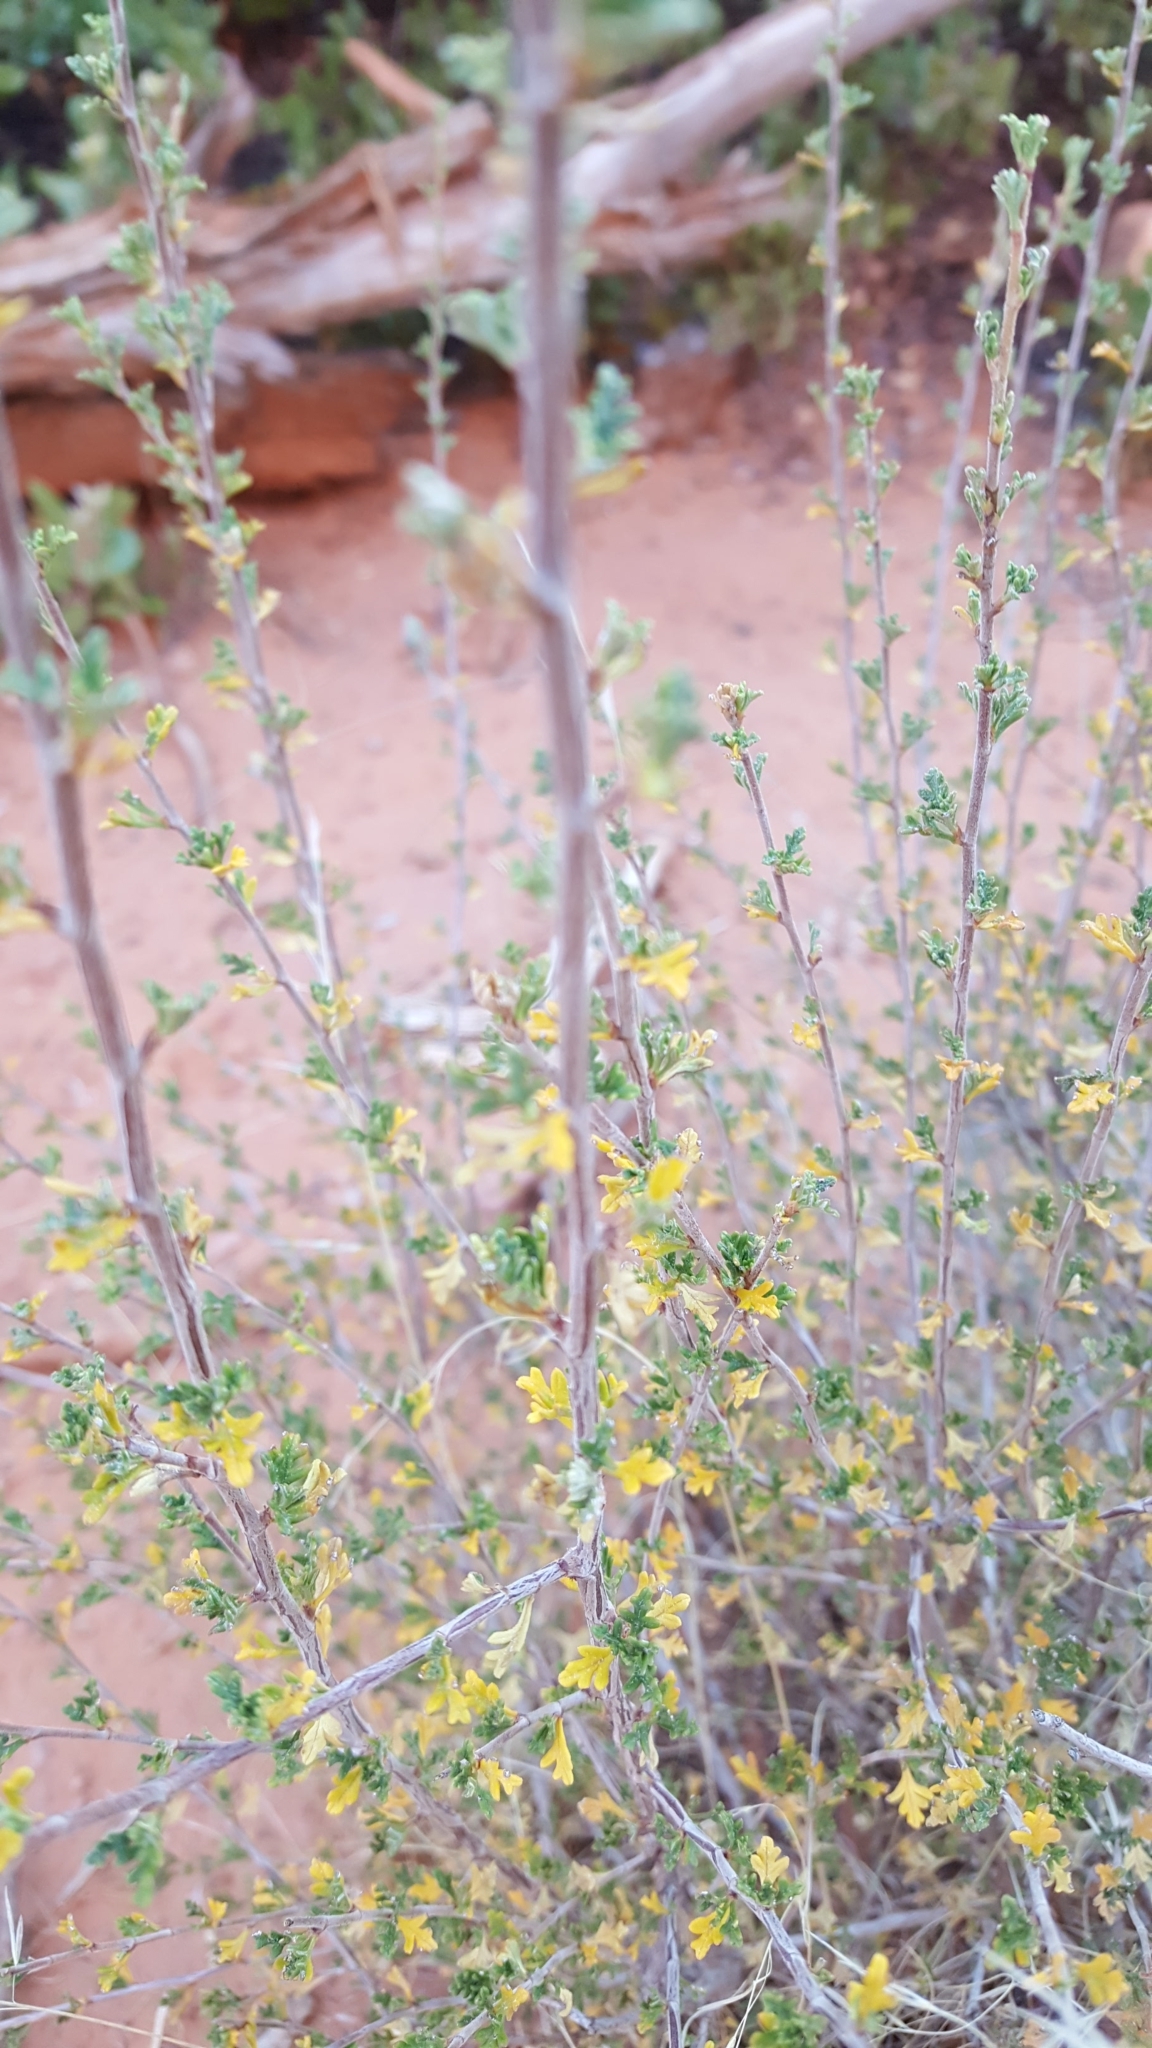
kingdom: Plantae
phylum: Tracheophyta
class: Magnoliopsida
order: Rosales
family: Rosaceae
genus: Fallugia
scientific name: Fallugia paradoxa
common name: Apache-plume
